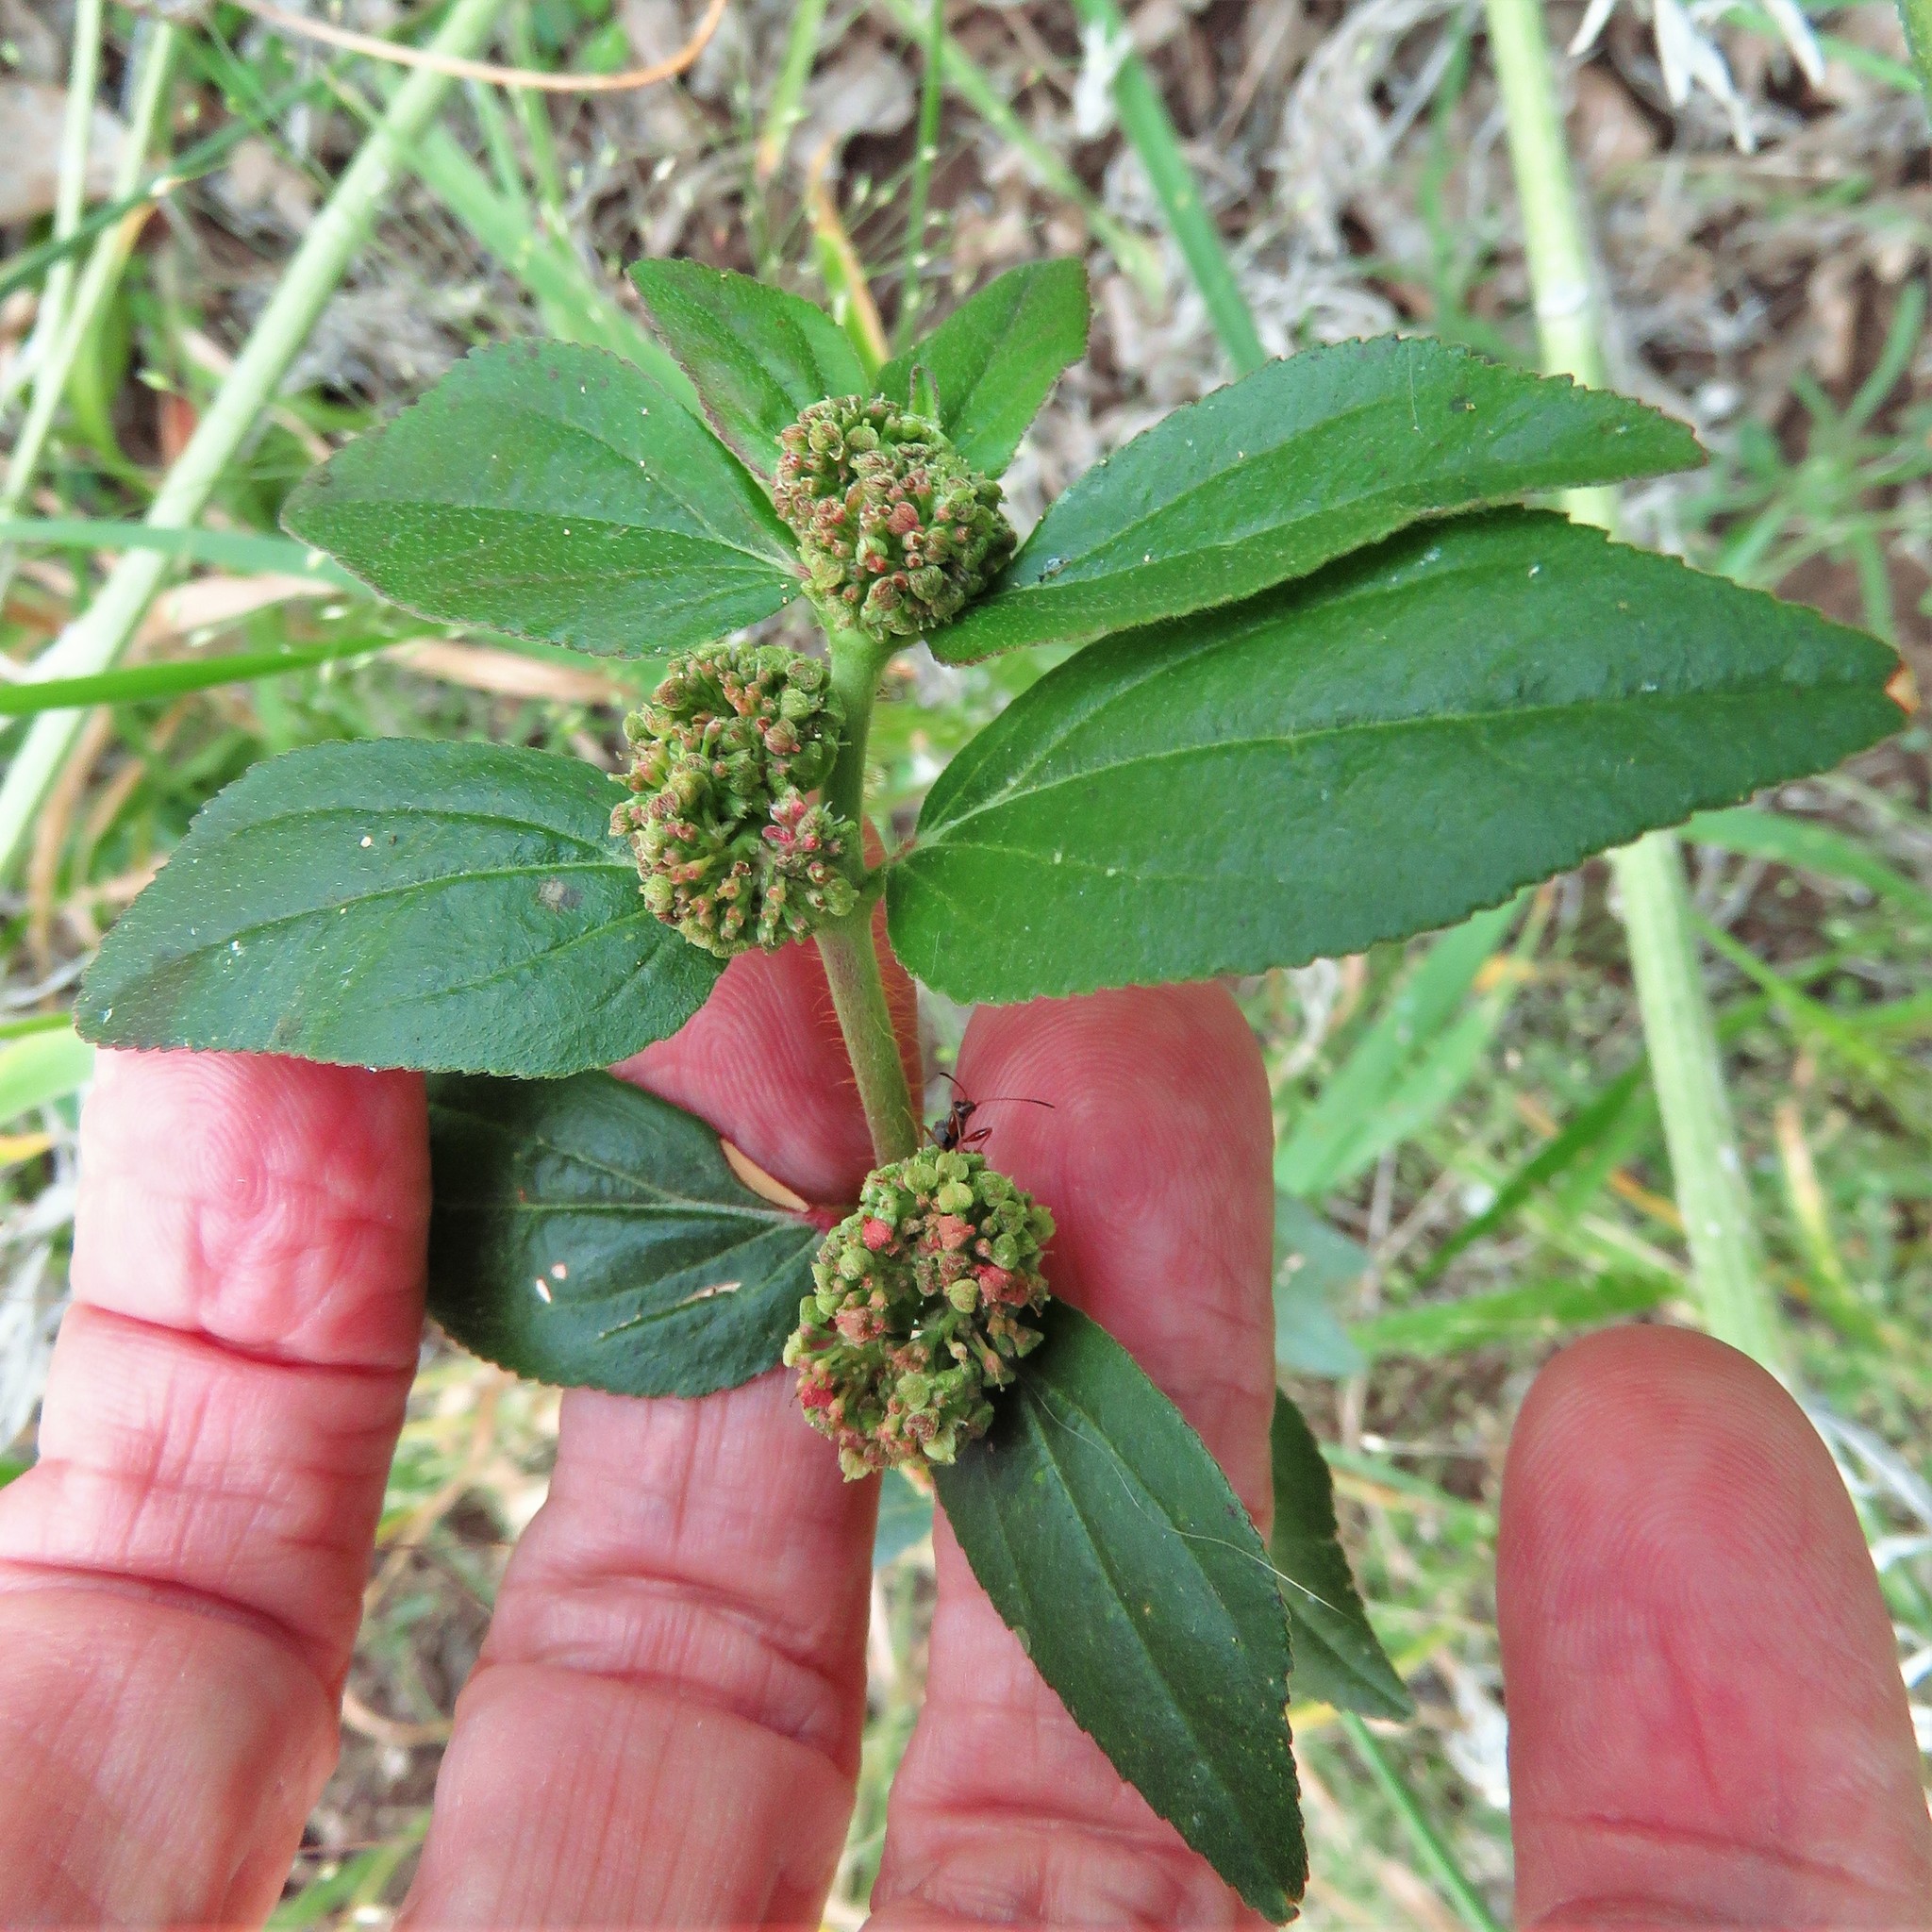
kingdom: Plantae
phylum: Tracheophyta
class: Magnoliopsida
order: Malpighiales
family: Euphorbiaceae
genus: Euphorbia
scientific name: Euphorbia hirta
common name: Pillpod sandmat
